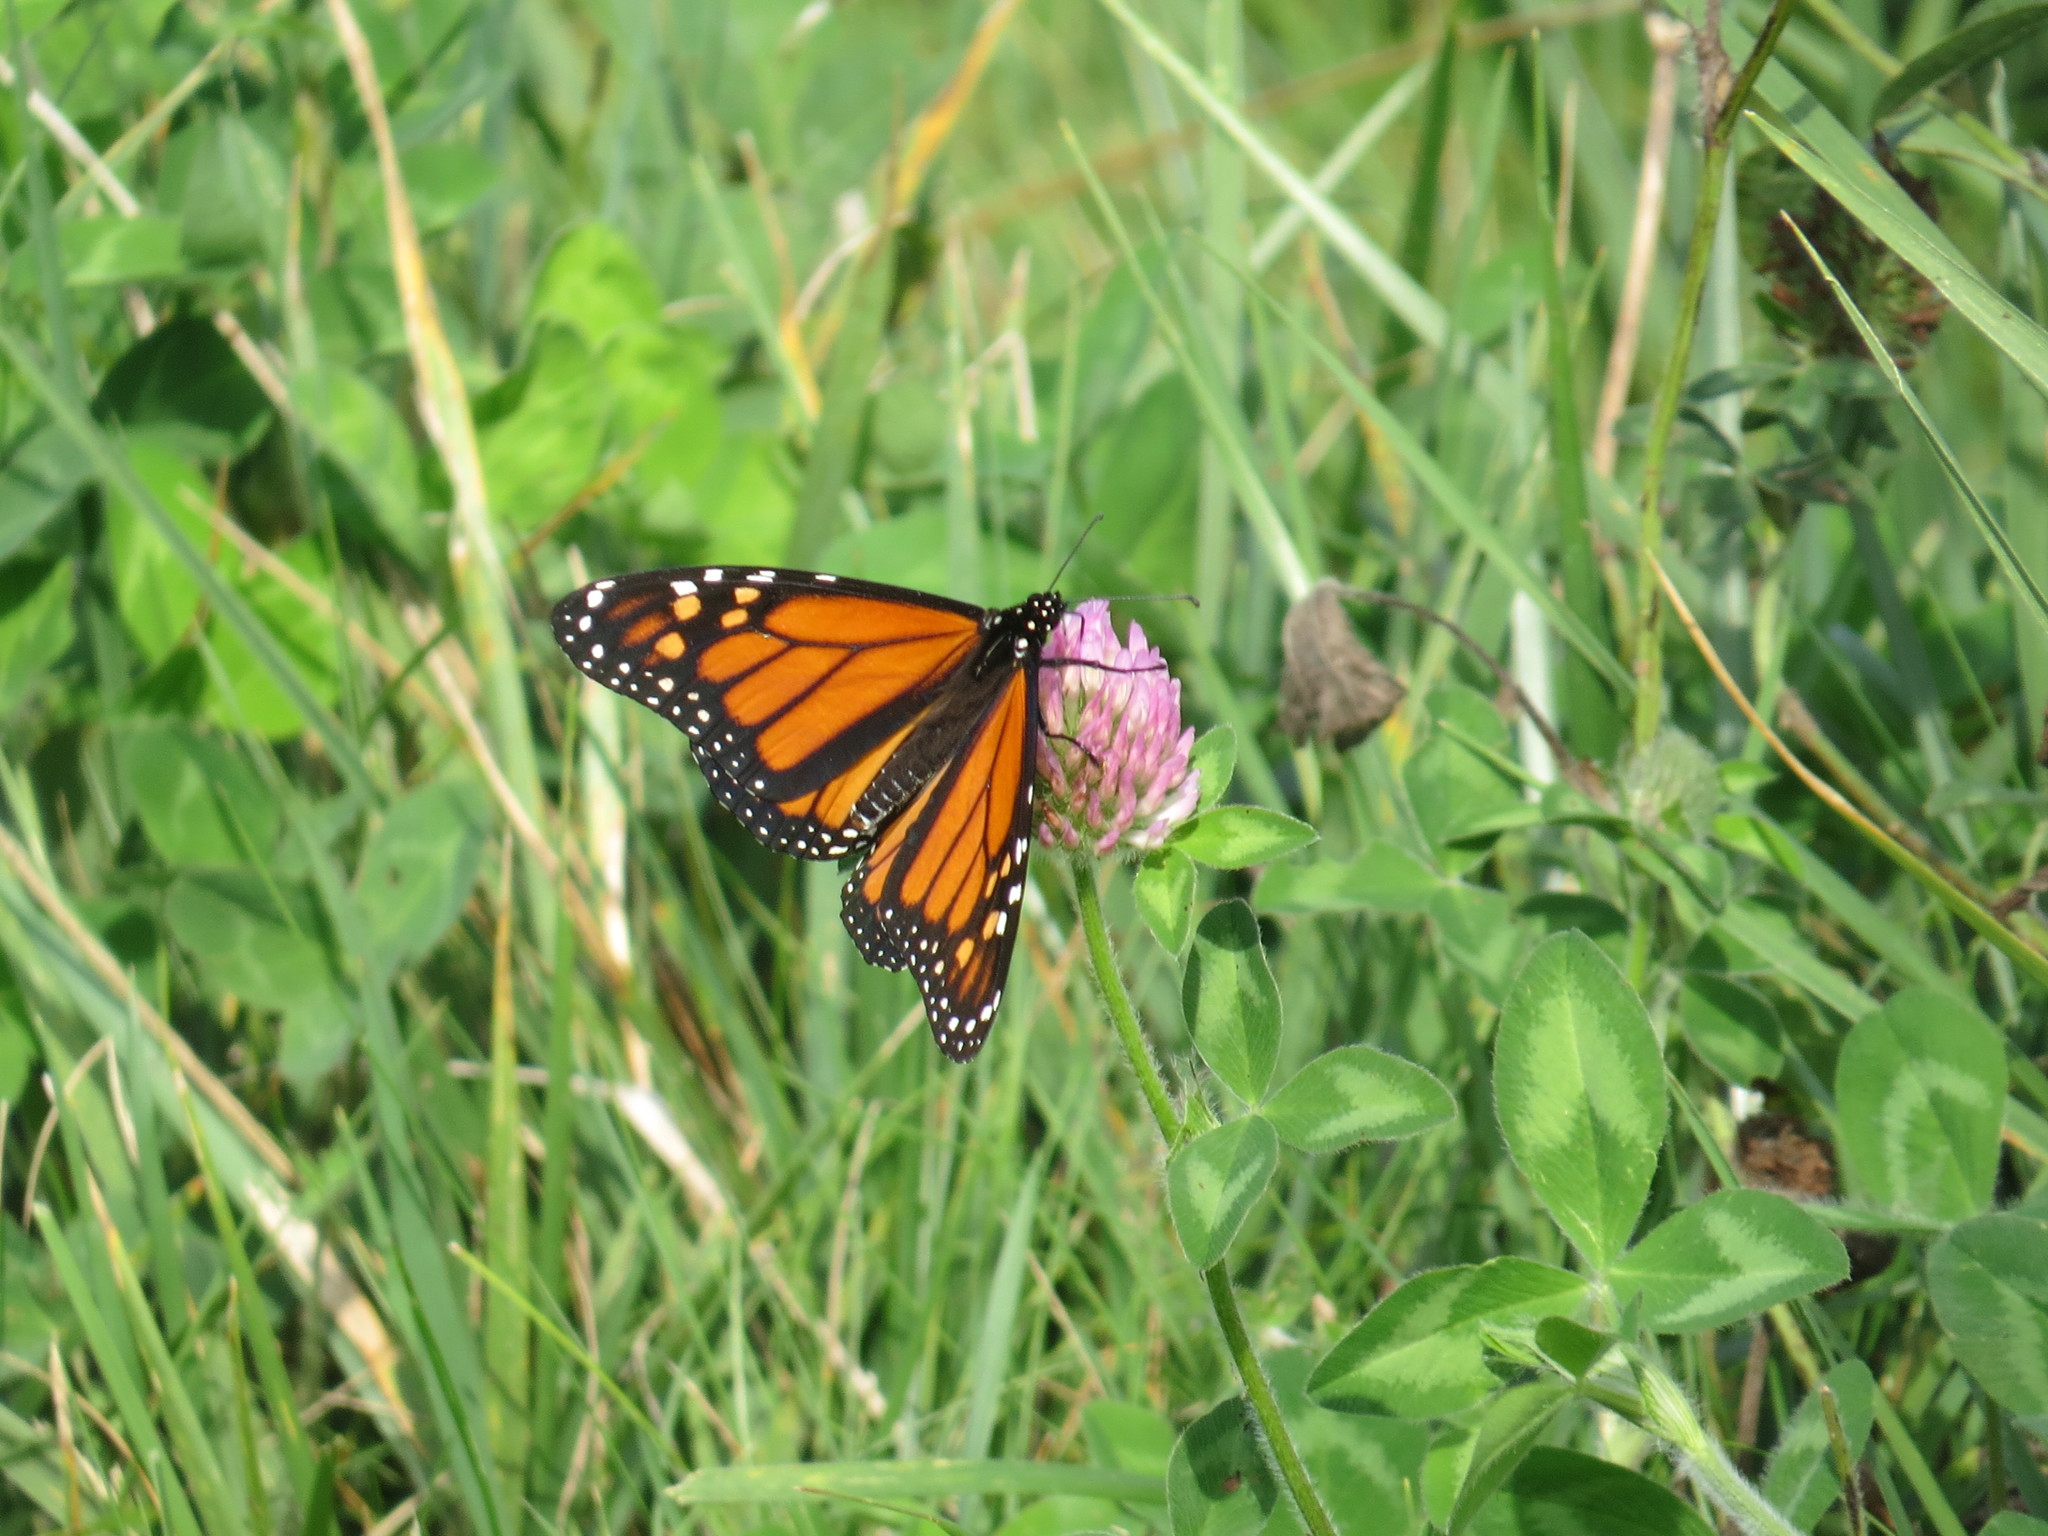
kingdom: Animalia
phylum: Arthropoda
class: Insecta
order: Lepidoptera
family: Nymphalidae
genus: Danaus
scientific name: Danaus plexippus
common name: Monarch
